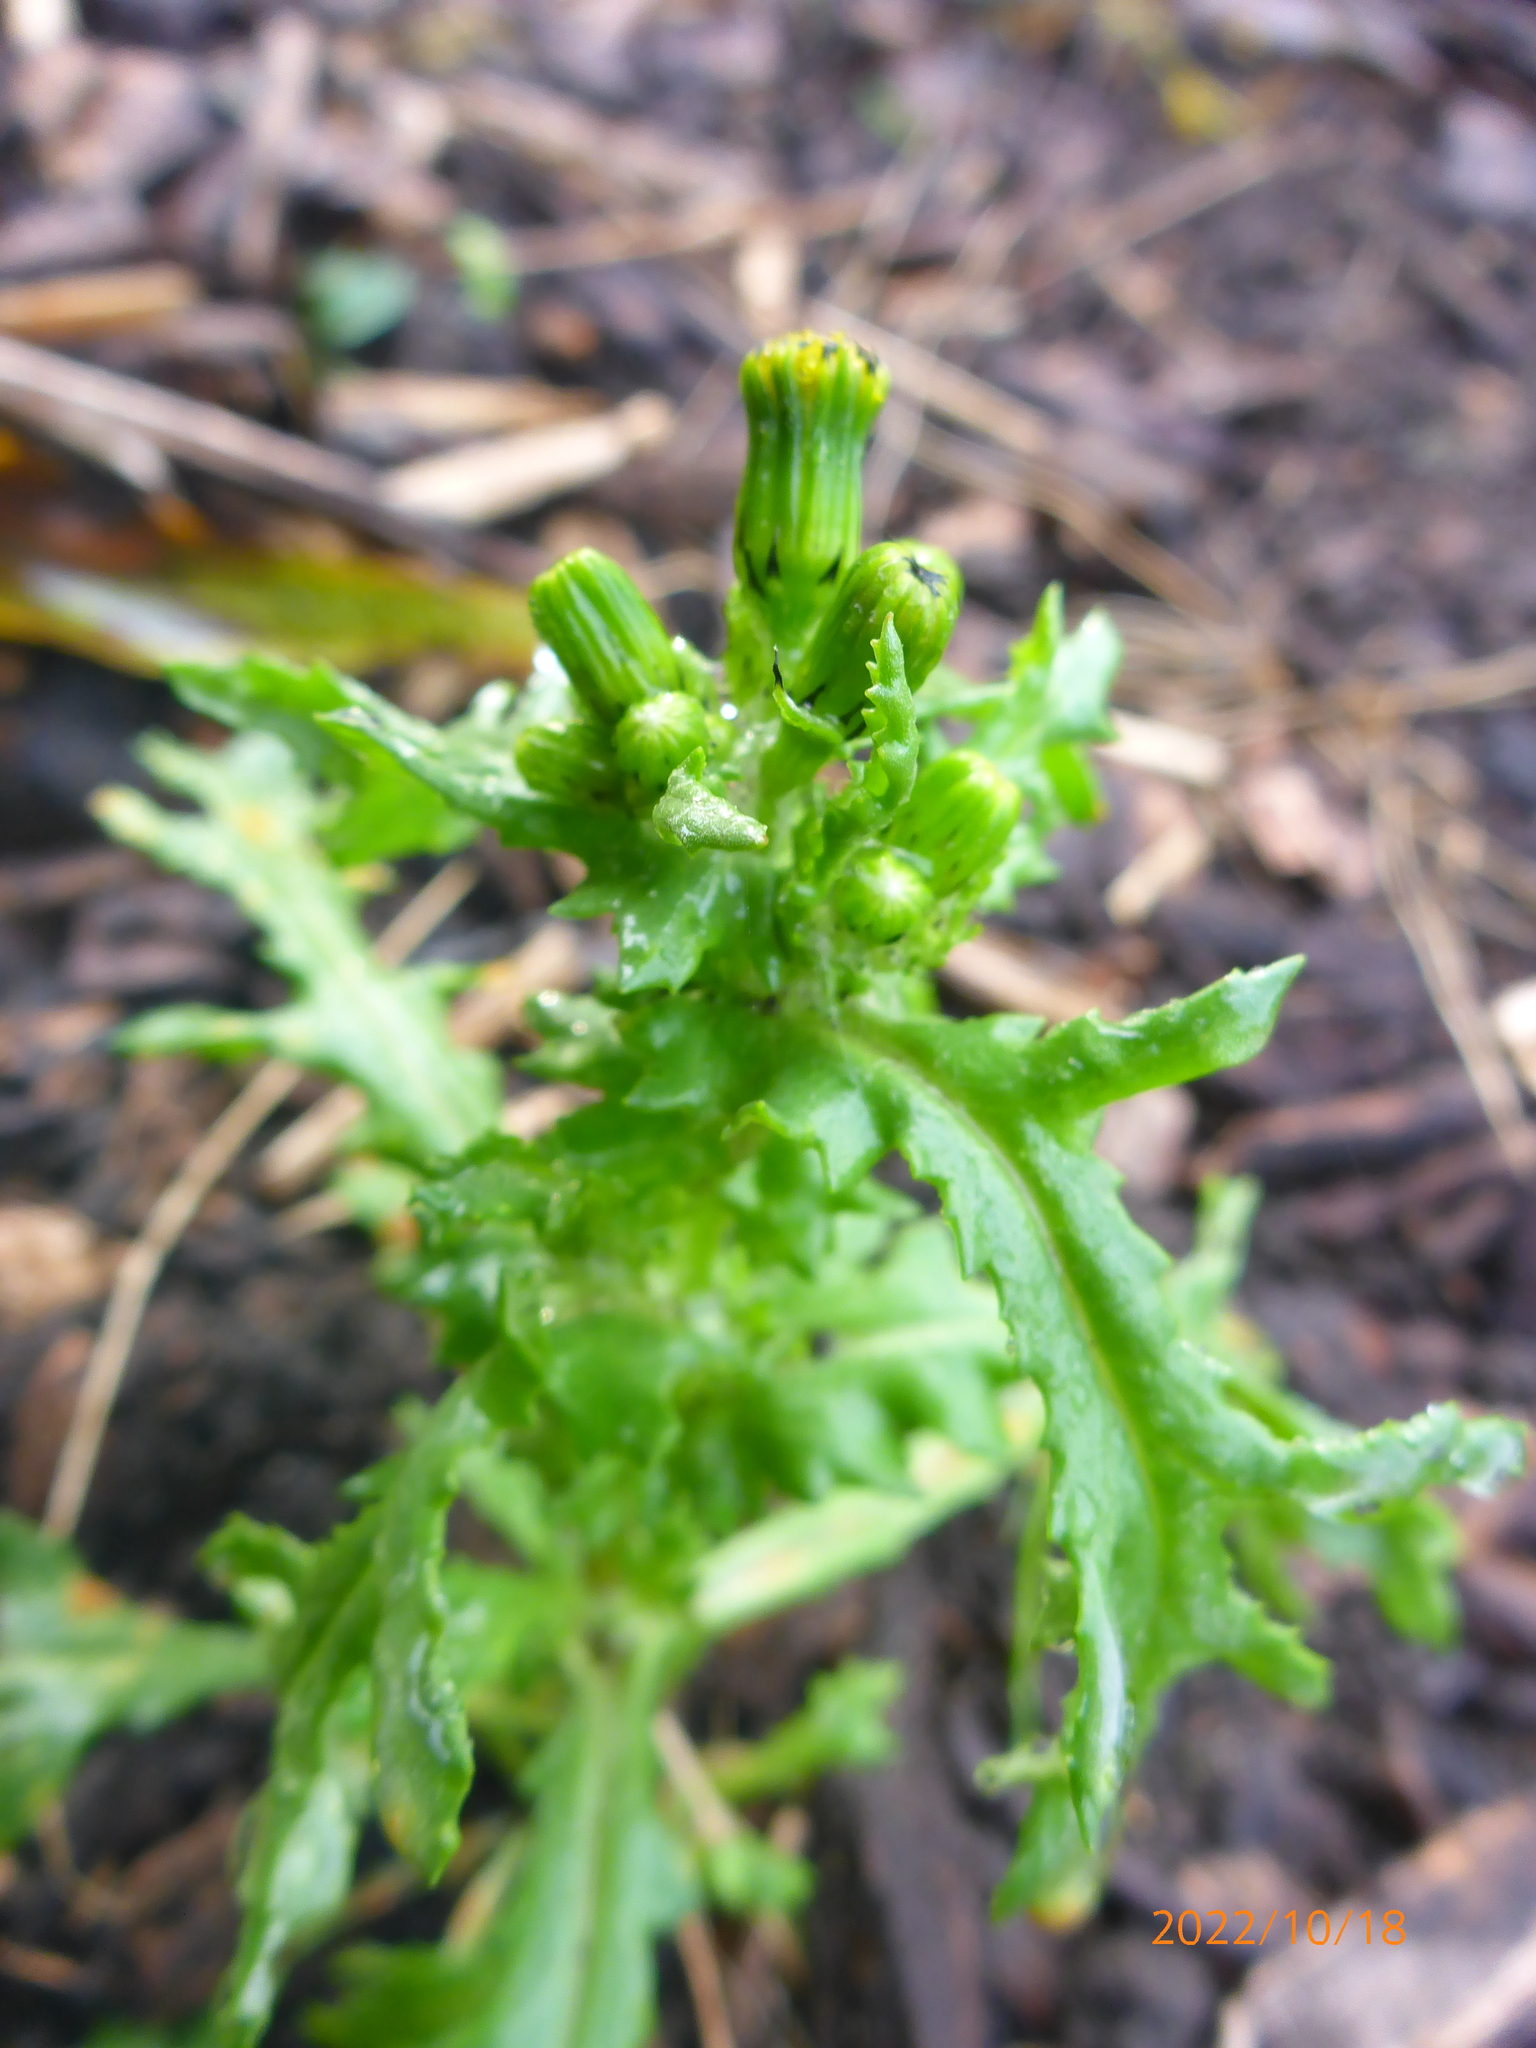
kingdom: Plantae
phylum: Tracheophyta
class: Magnoliopsida
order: Asterales
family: Asteraceae
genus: Senecio
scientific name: Senecio vulgaris
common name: Old-man-in-the-spring
